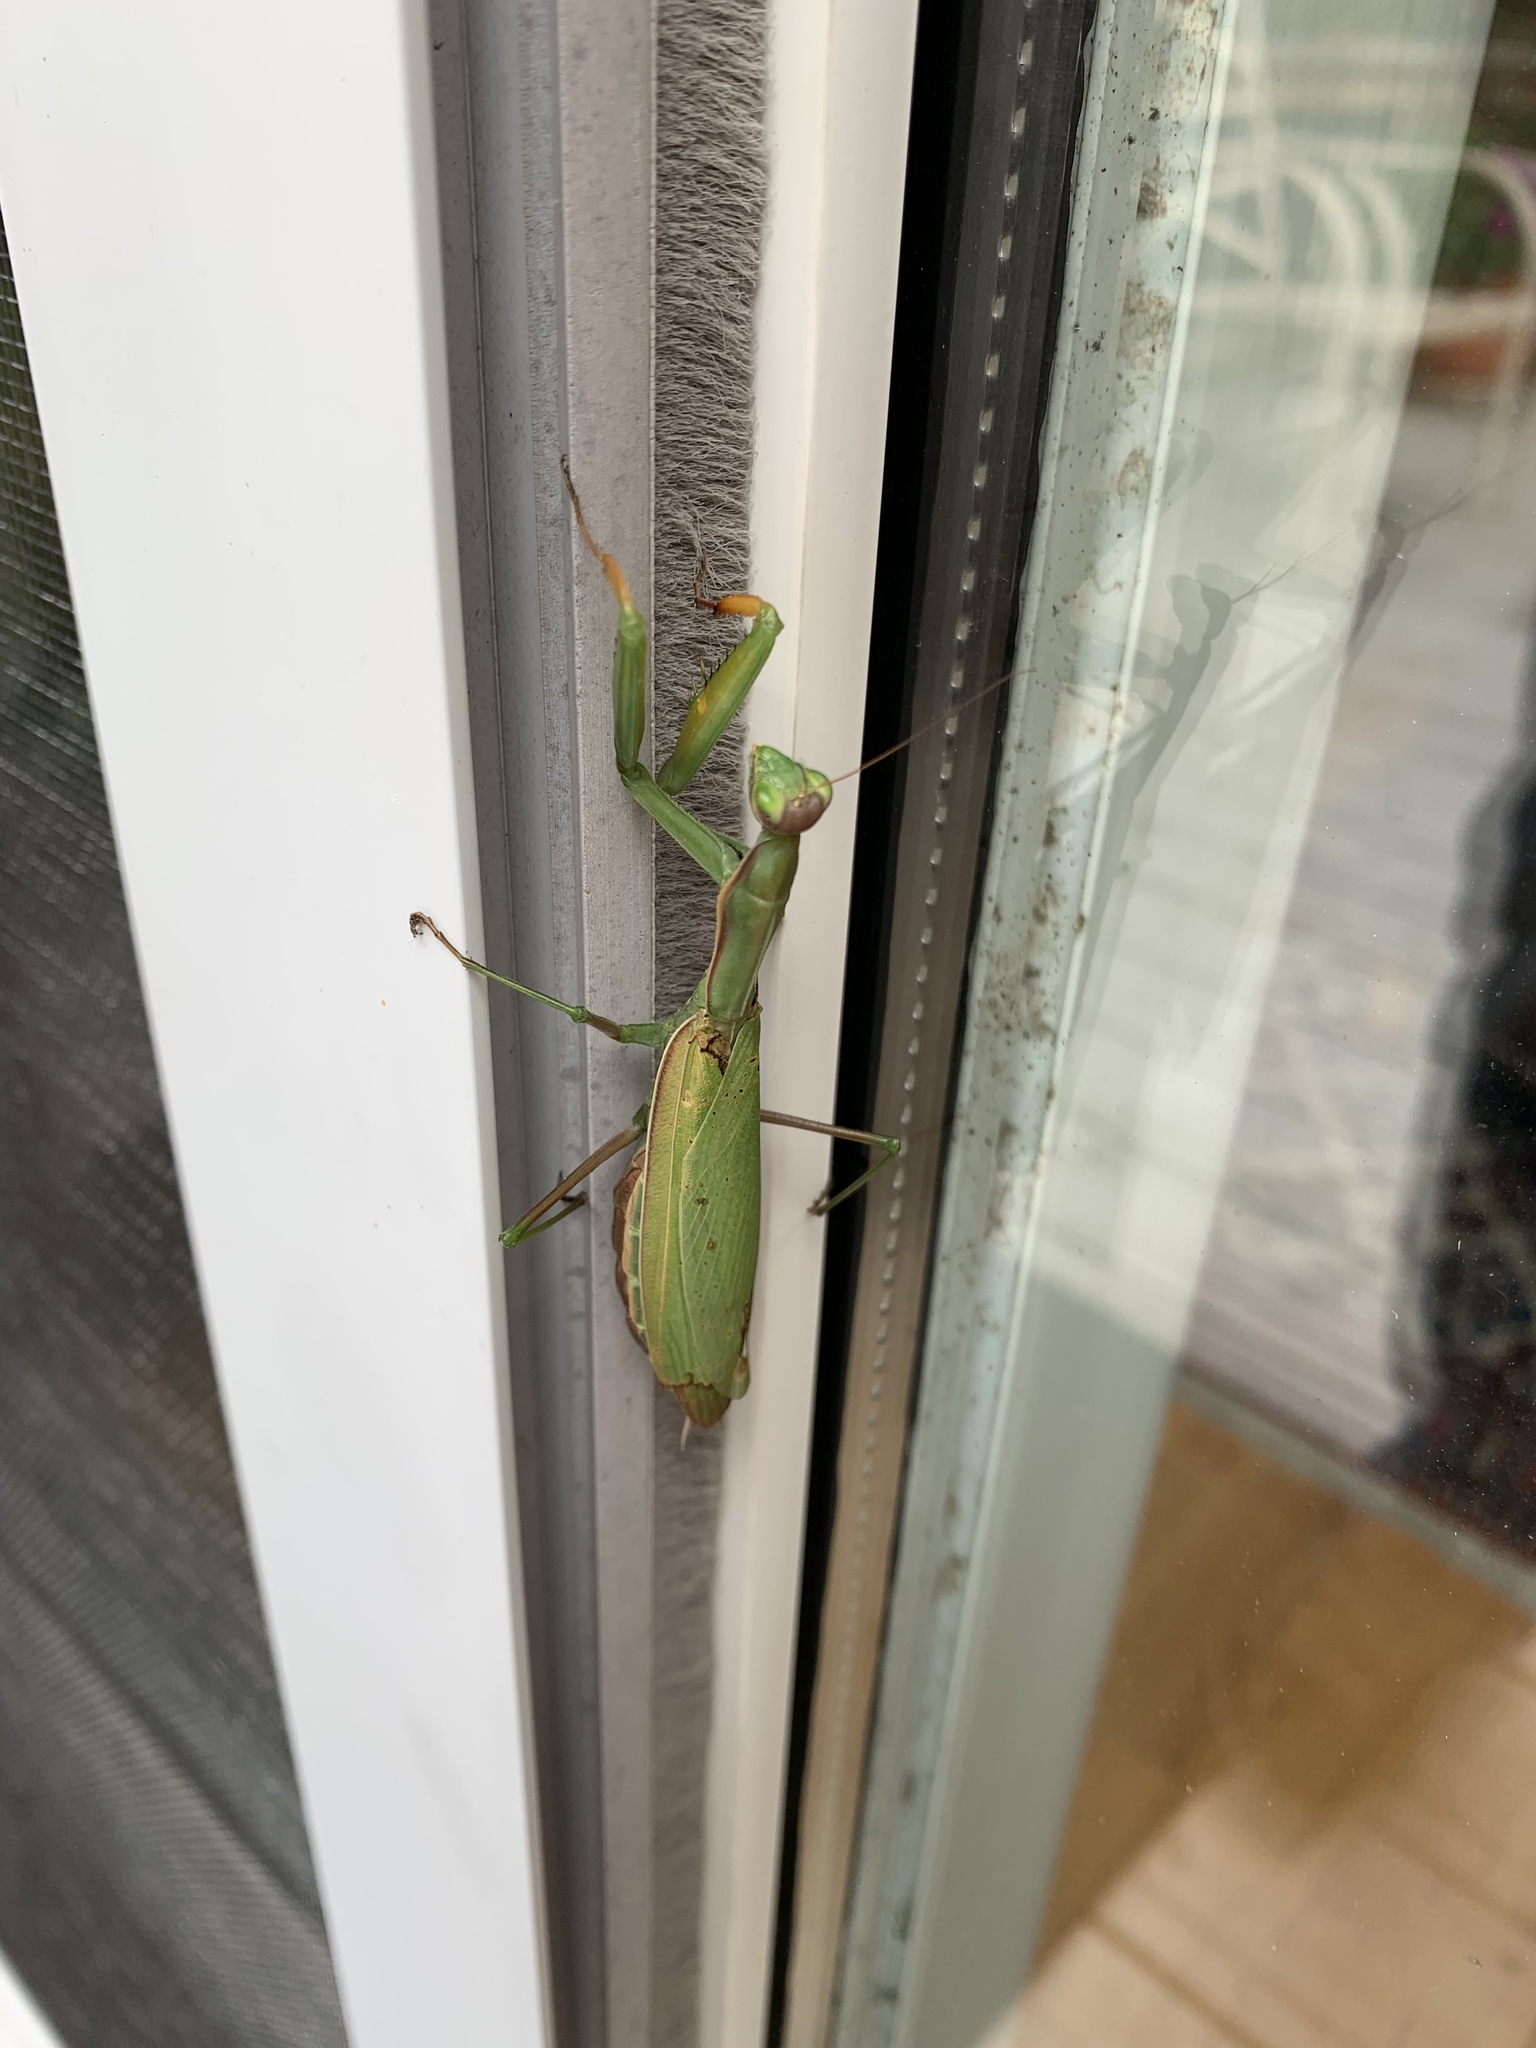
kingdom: Animalia
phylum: Arthropoda
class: Insecta
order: Mantodea
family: Mantidae
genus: Mantis
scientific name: Mantis religiosa
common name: Praying mantis
